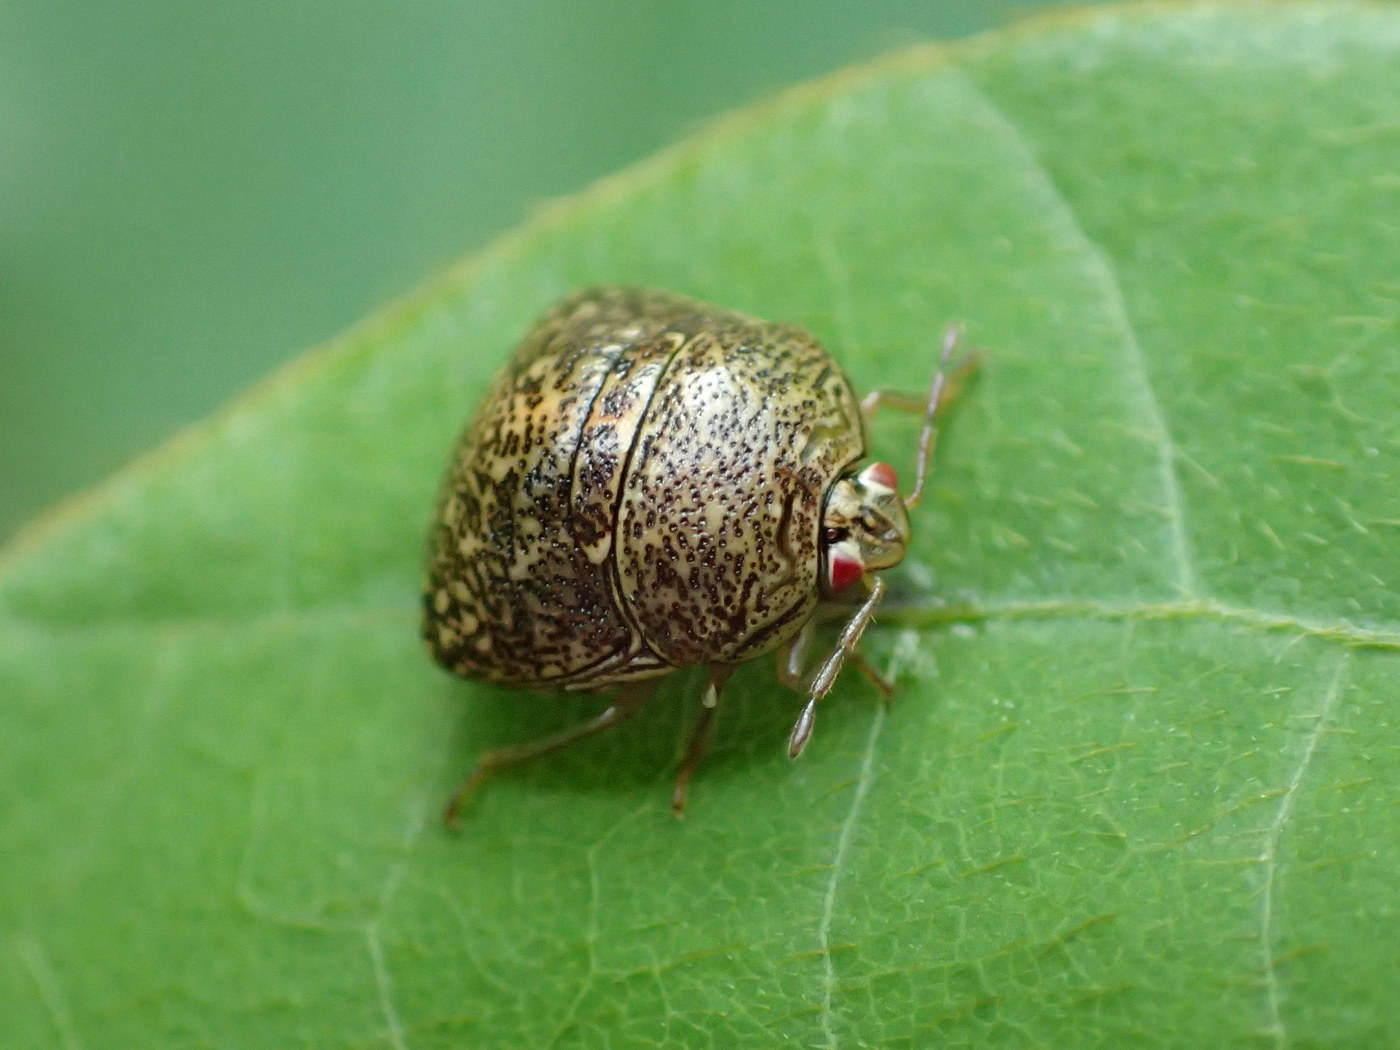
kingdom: Animalia
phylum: Arthropoda
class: Insecta
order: Hemiptera
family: Plataspidae
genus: Megacopta
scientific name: Megacopta cribraria
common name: Bean plataspid
